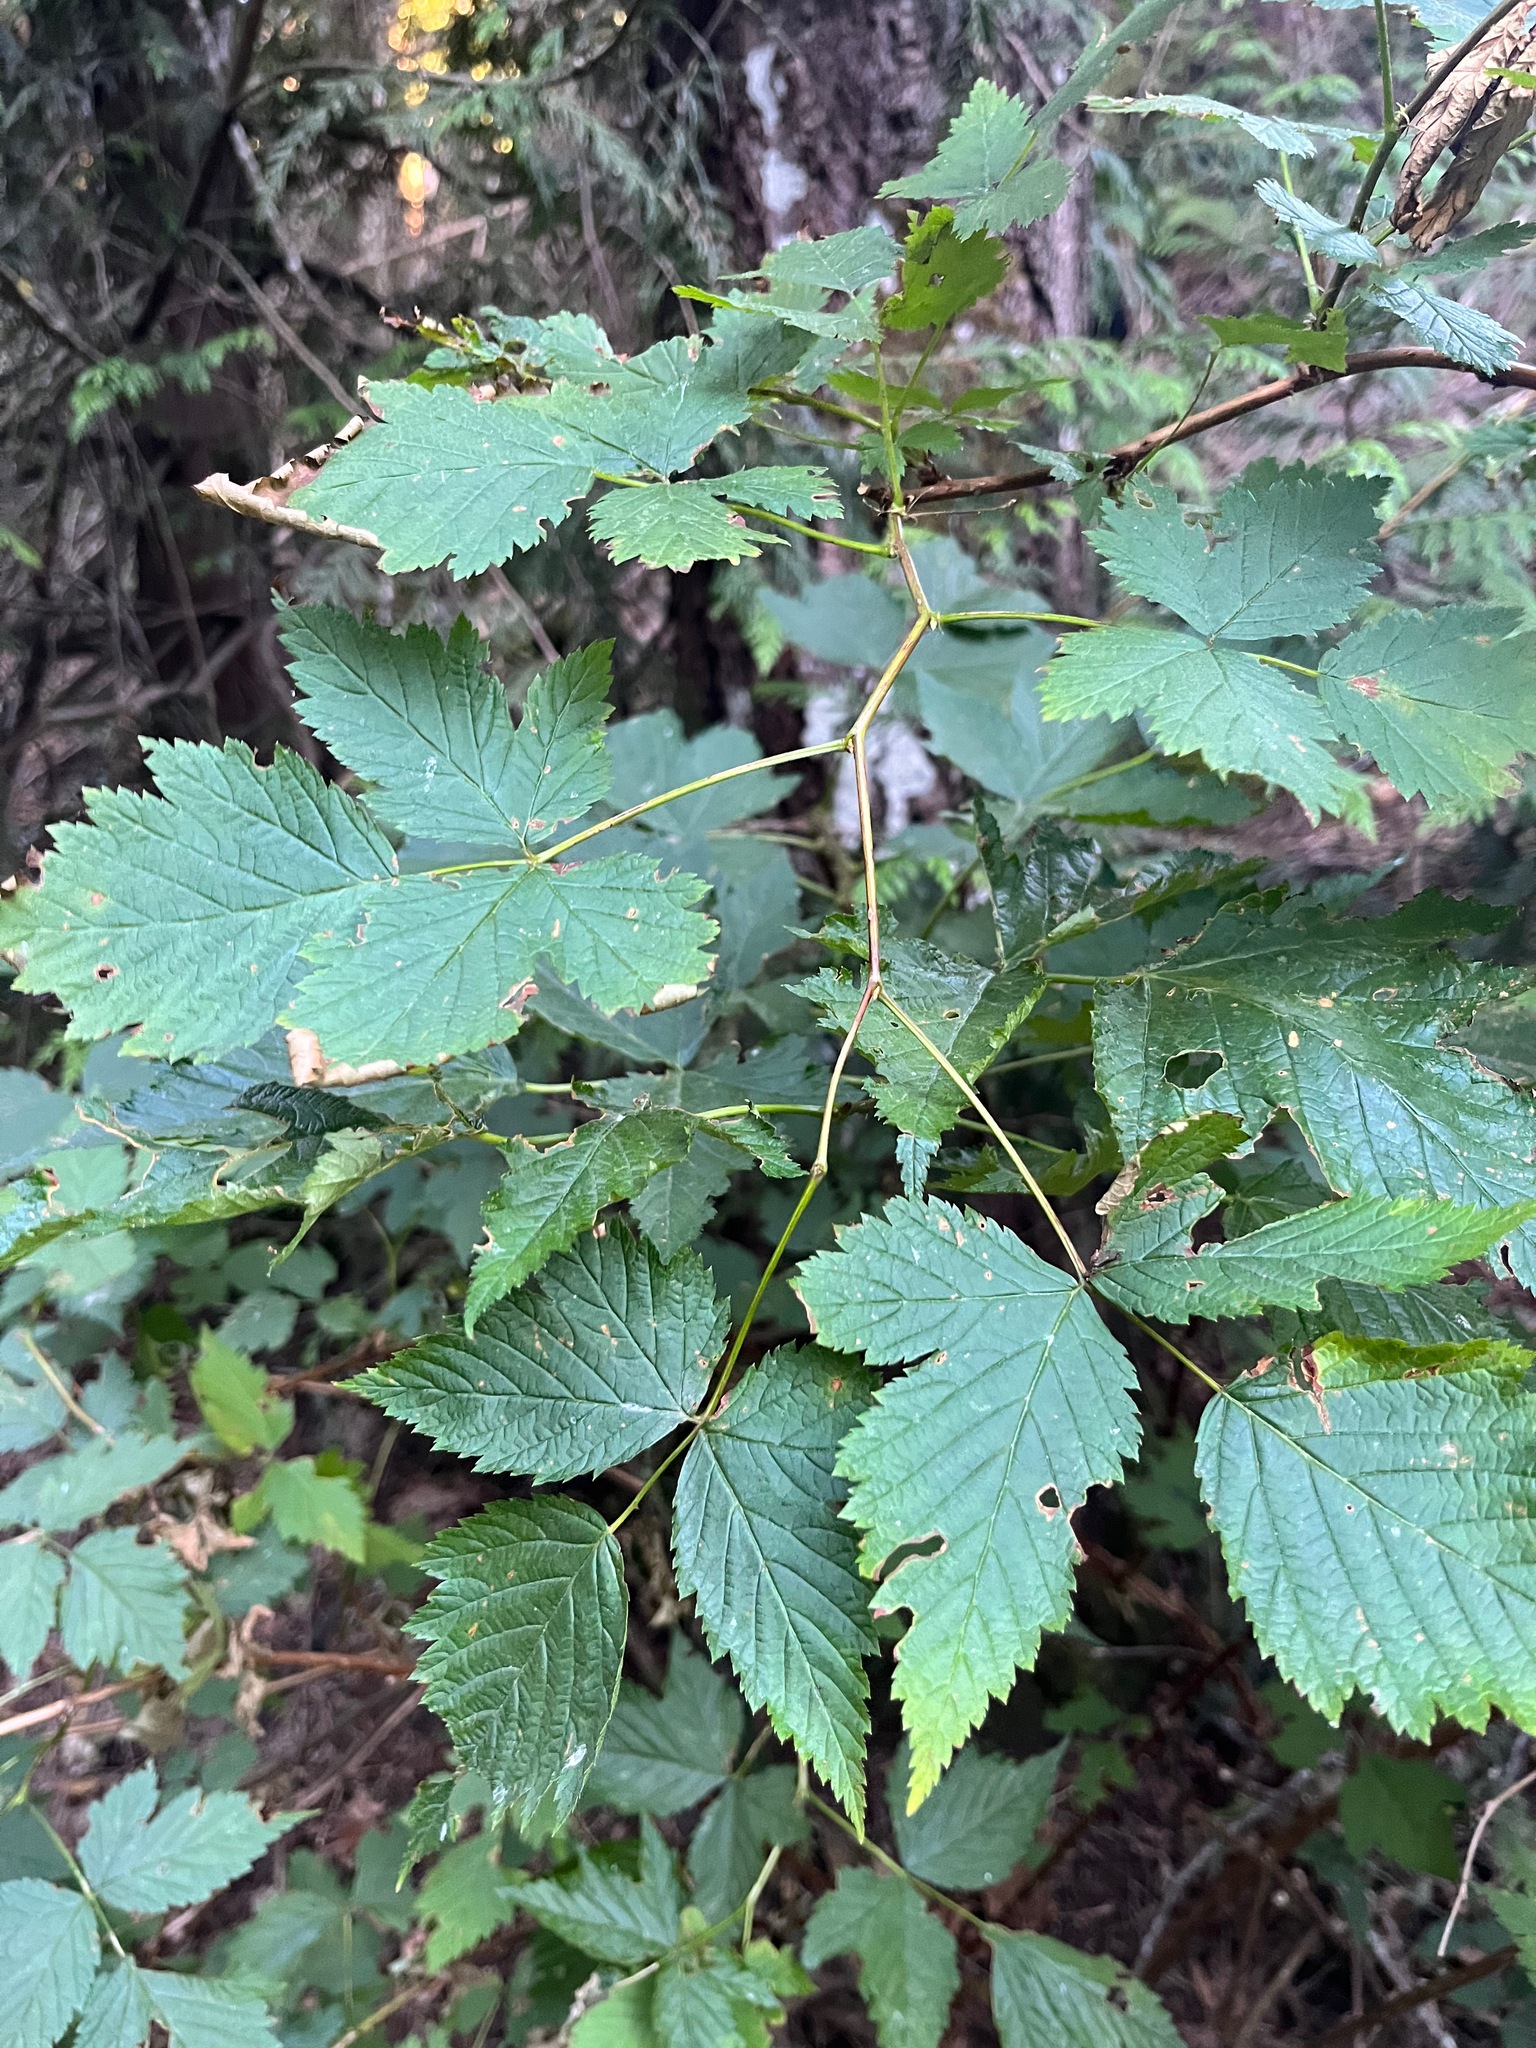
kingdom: Plantae
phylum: Tracheophyta
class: Magnoliopsida
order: Rosales
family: Rosaceae
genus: Rubus
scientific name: Rubus spectabilis
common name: Salmonberry
